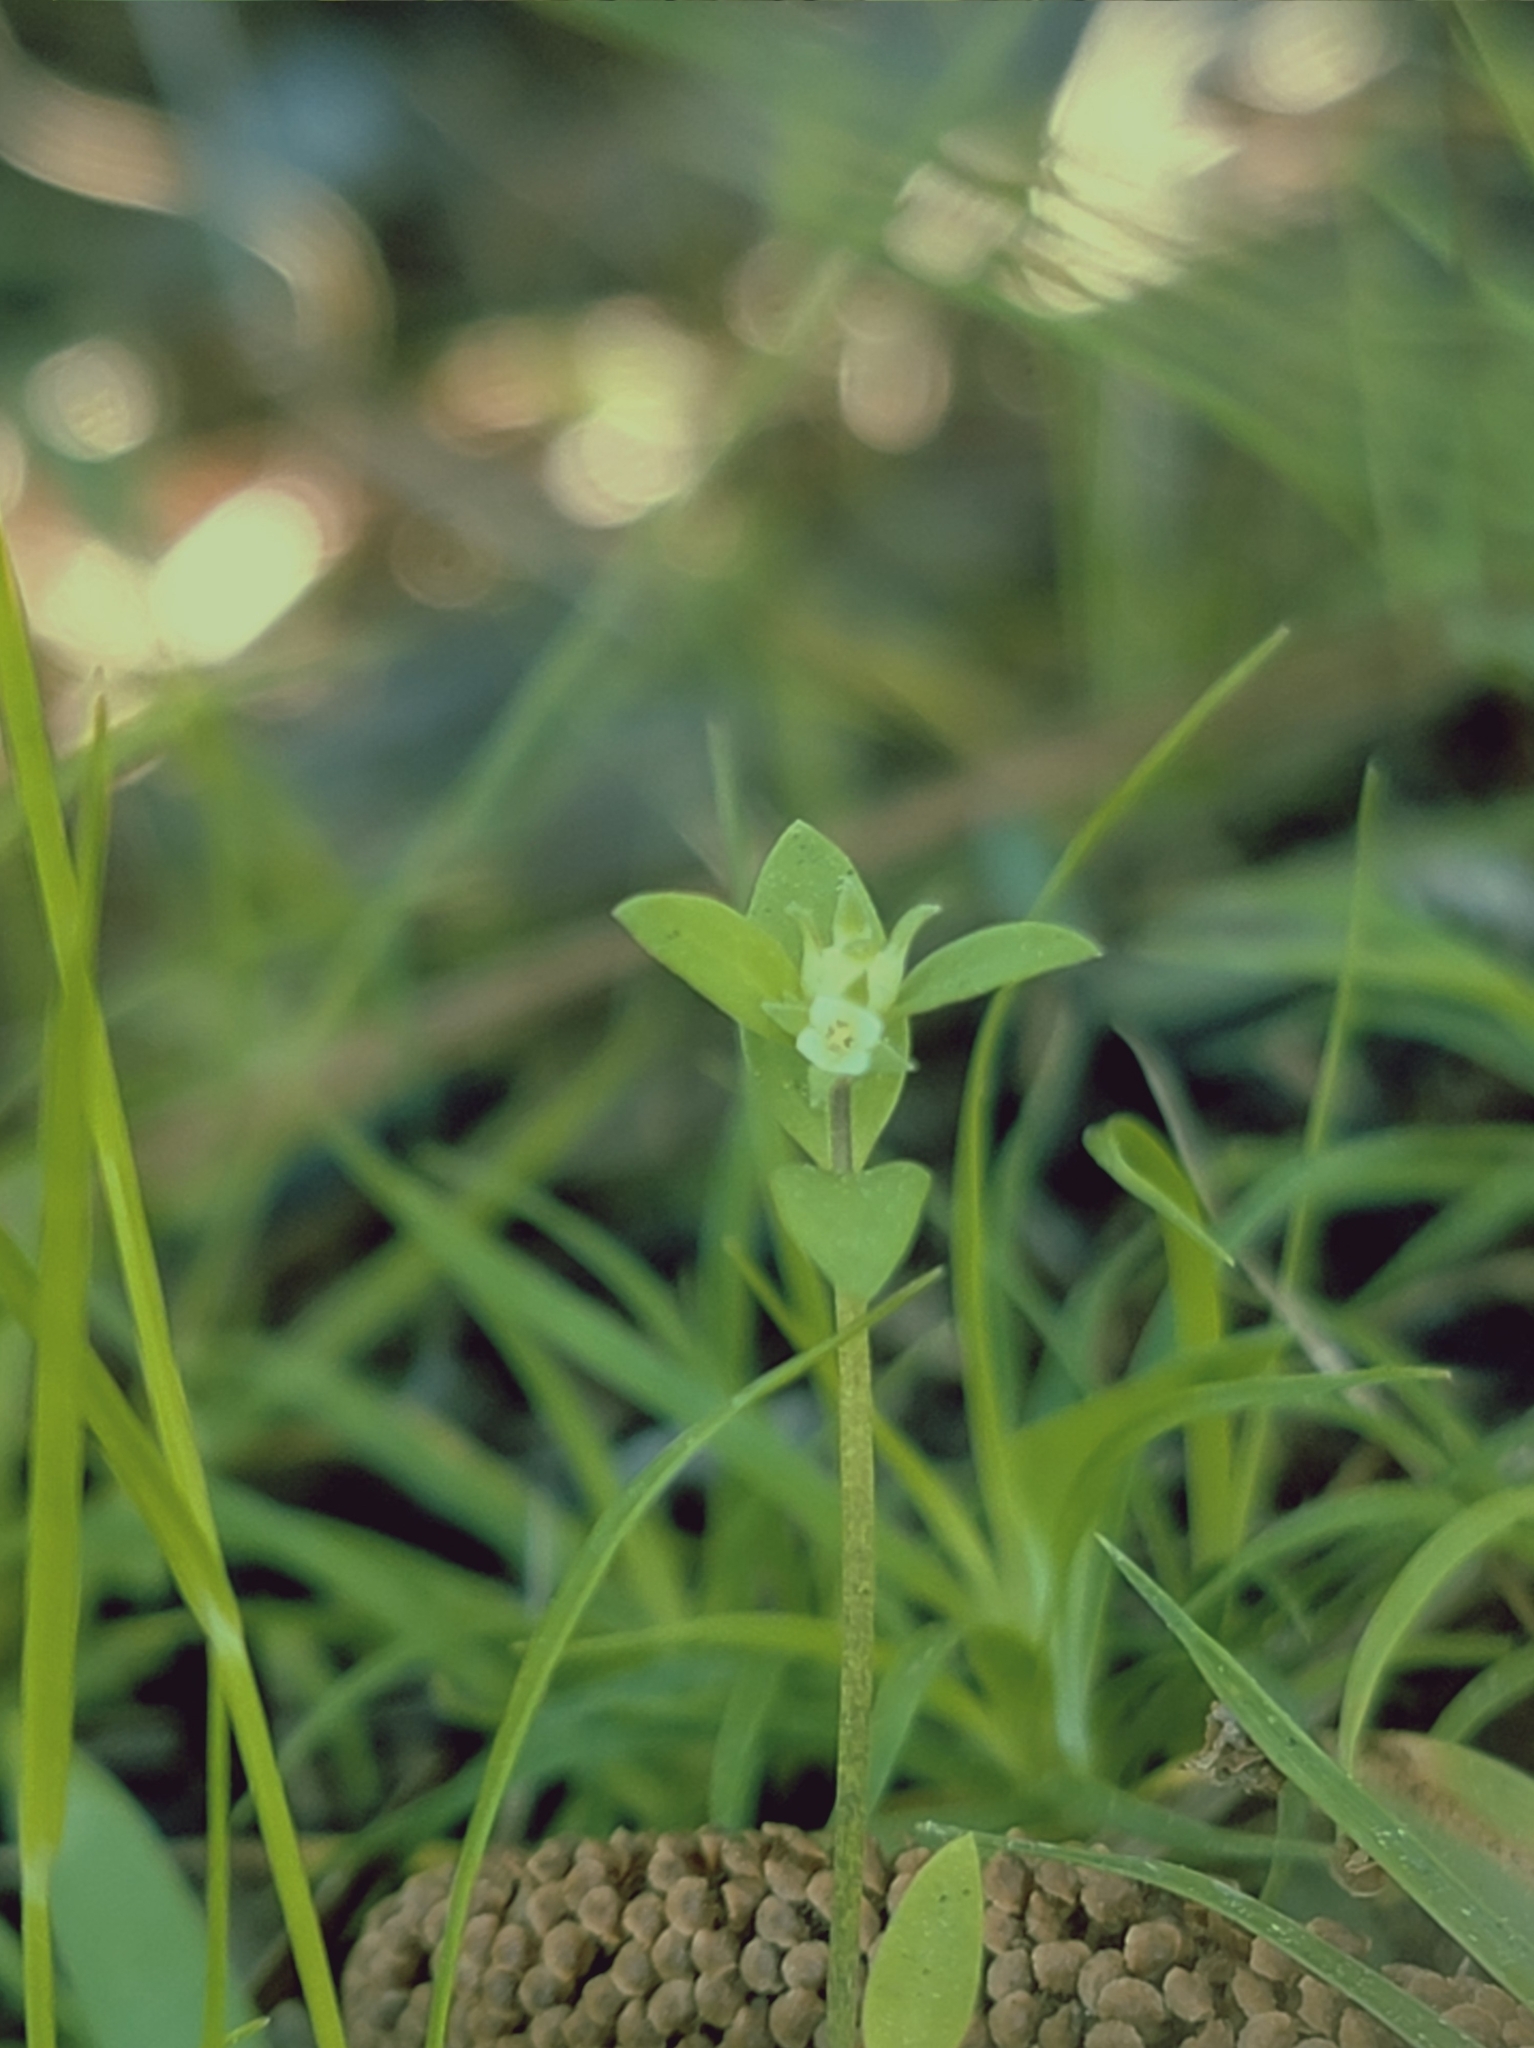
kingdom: Plantae
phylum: Tracheophyta
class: Magnoliopsida
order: Gentianales
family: Rubiaceae
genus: Edrastima
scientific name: Edrastima uniflora
